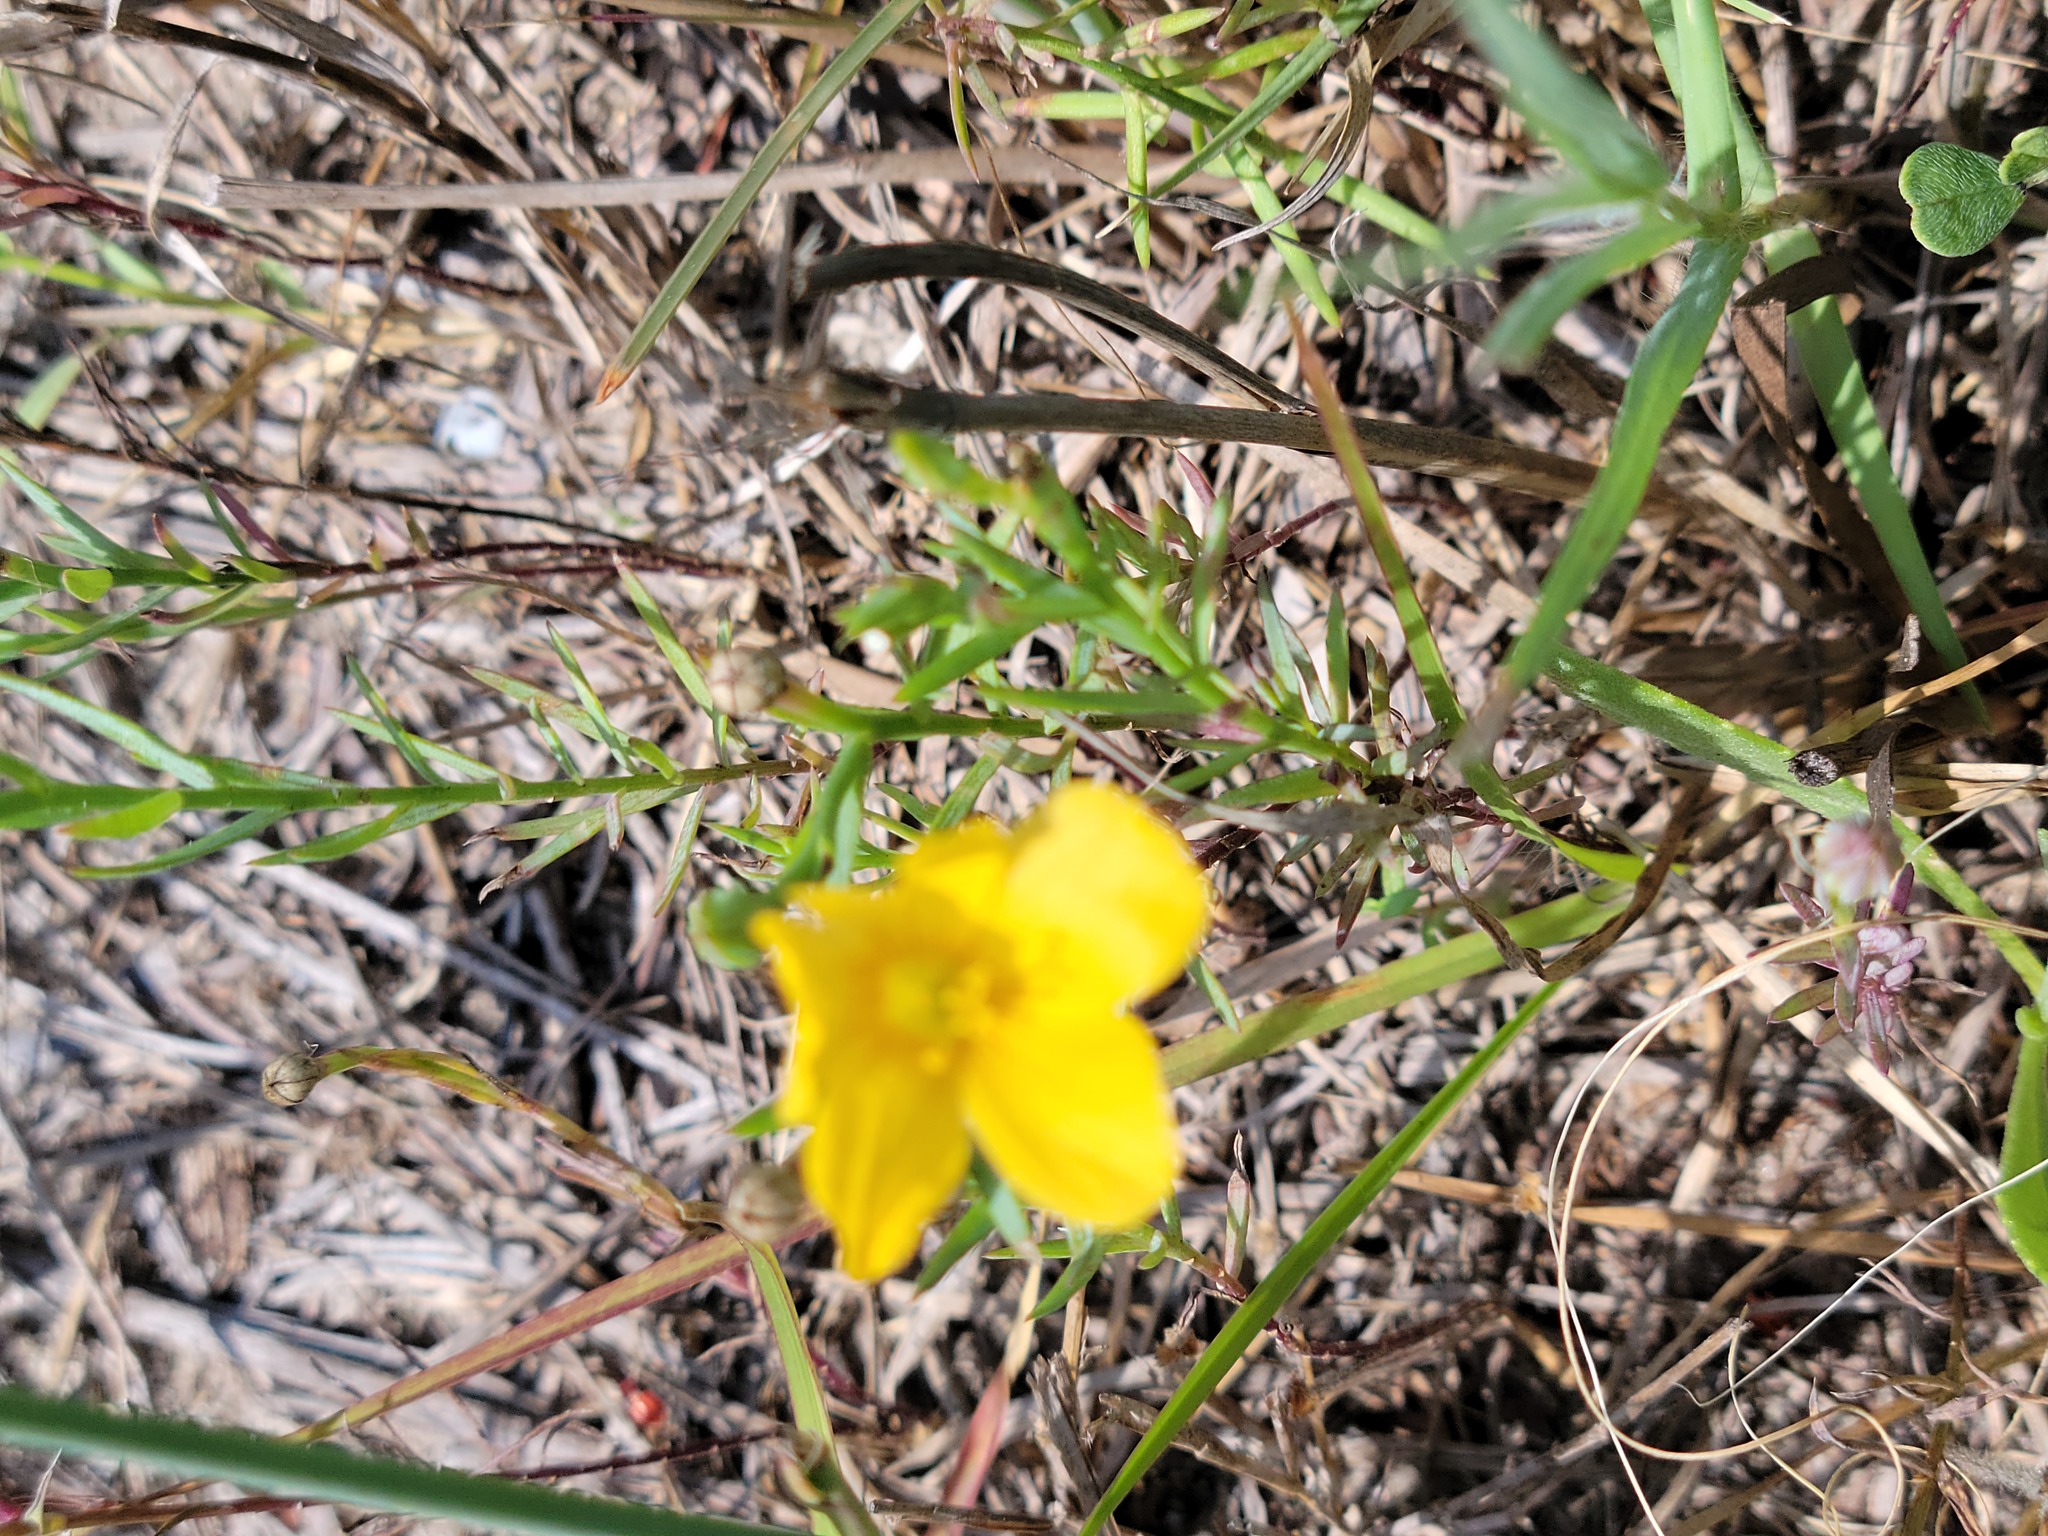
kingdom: Plantae
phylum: Tracheophyta
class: Magnoliopsida
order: Malpighiales
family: Linaceae
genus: Linum
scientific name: Linum berlandieri
